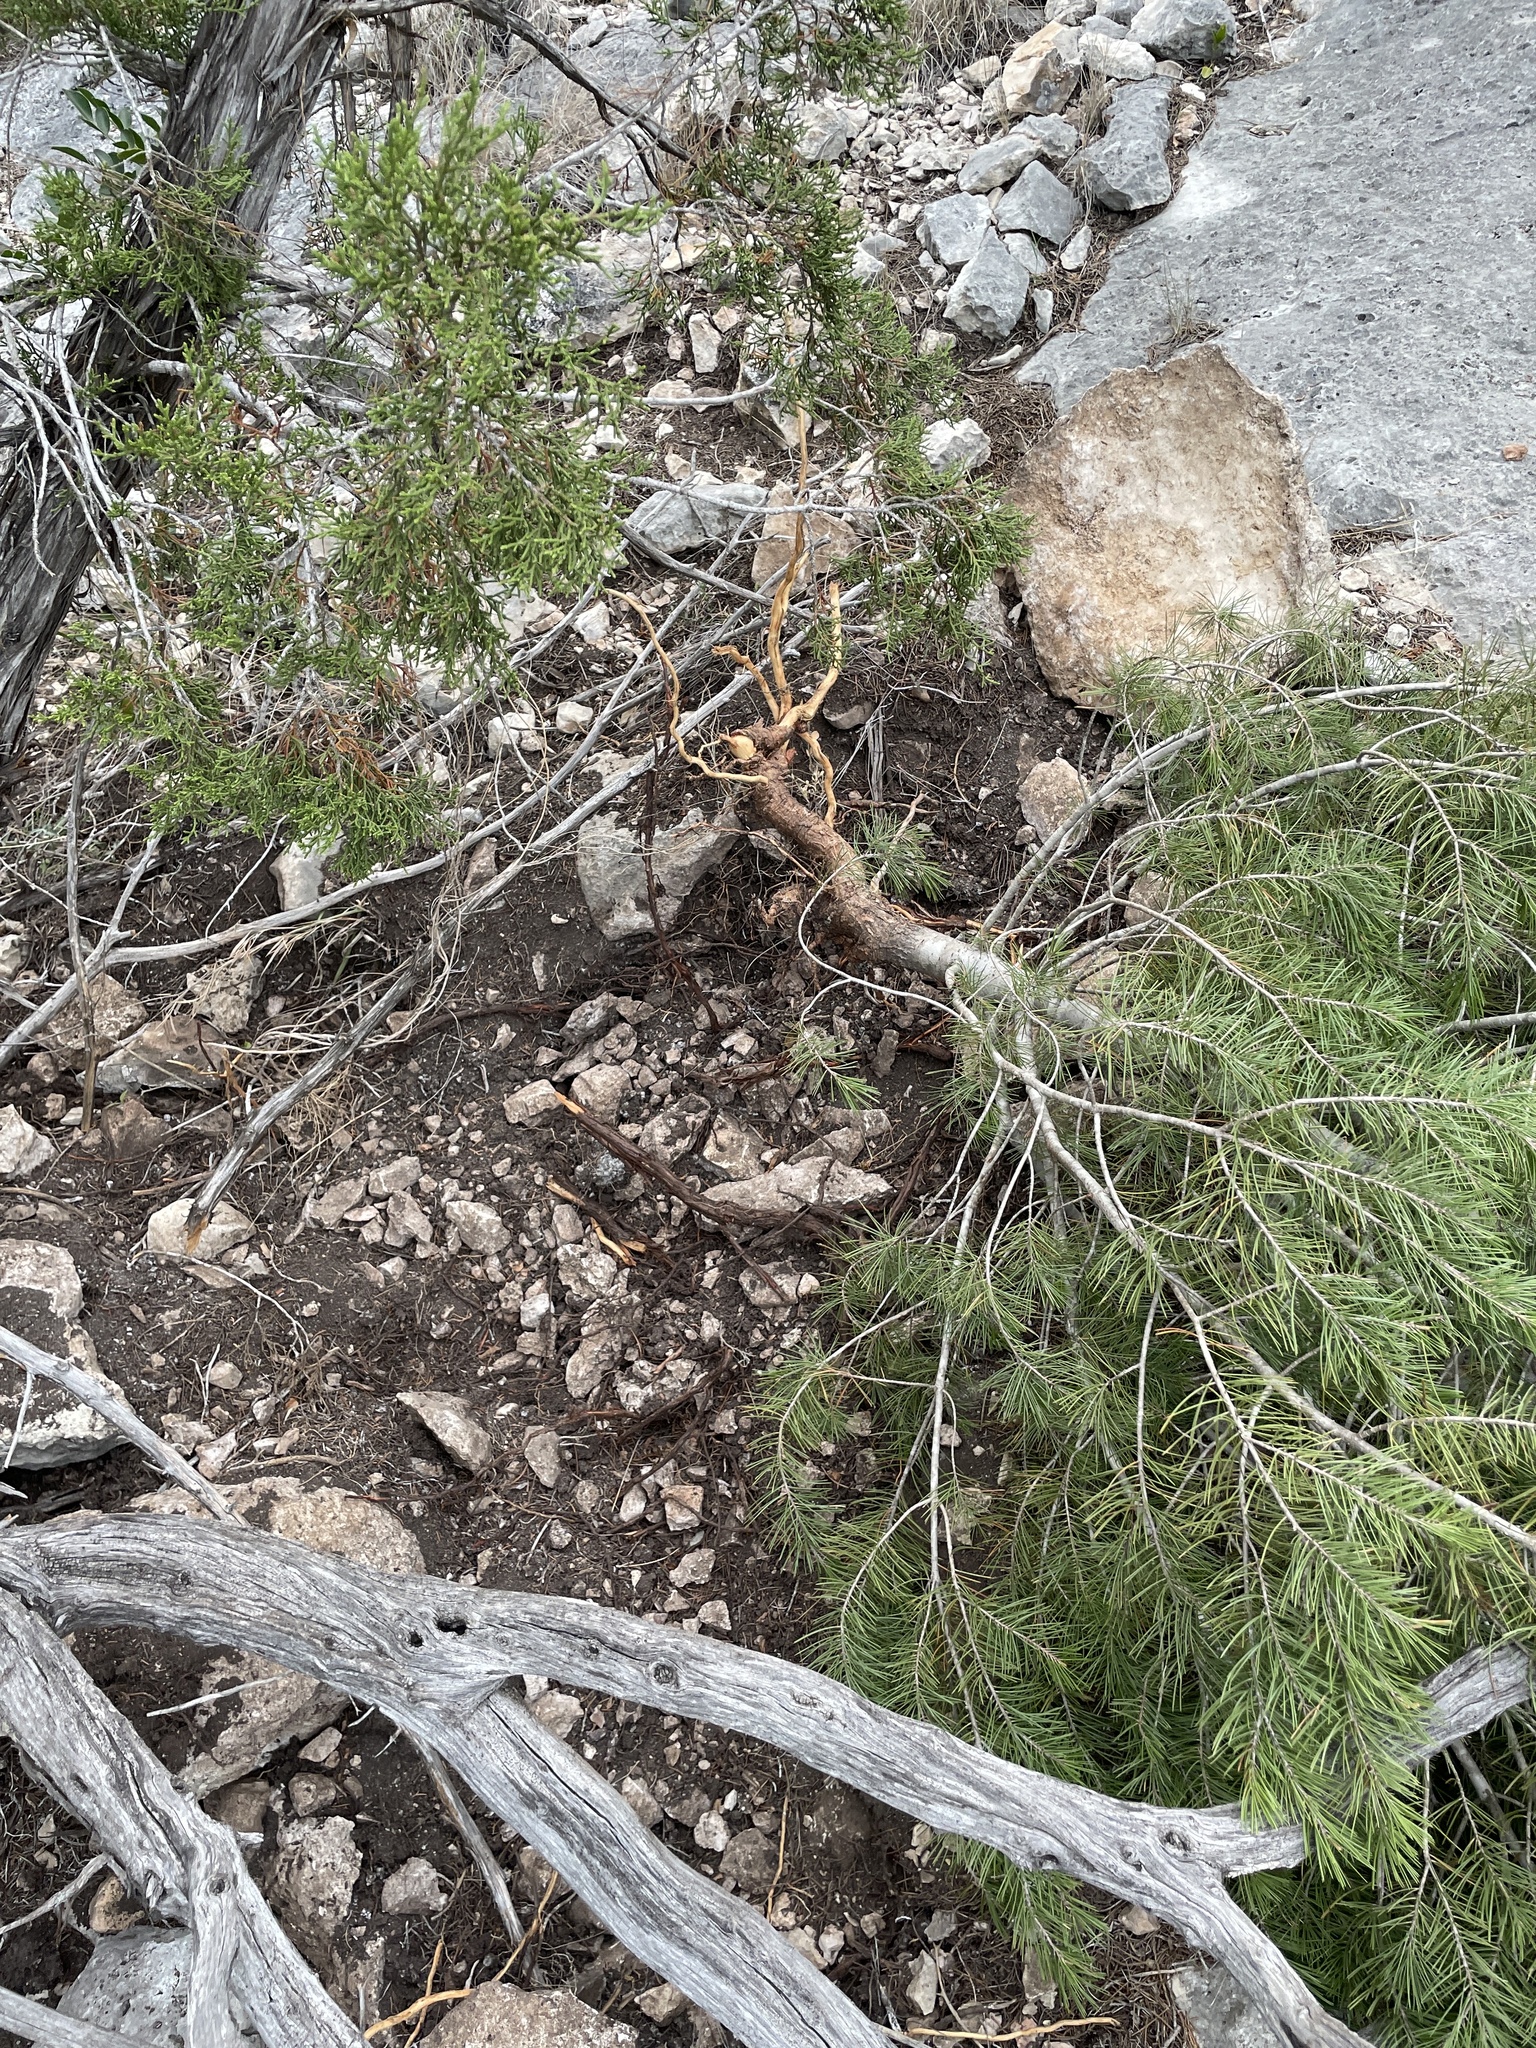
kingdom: Plantae
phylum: Tracheophyta
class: Pinopsida
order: Pinales
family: Pinaceae
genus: Pinus
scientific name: Pinus remota
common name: Nut pine
